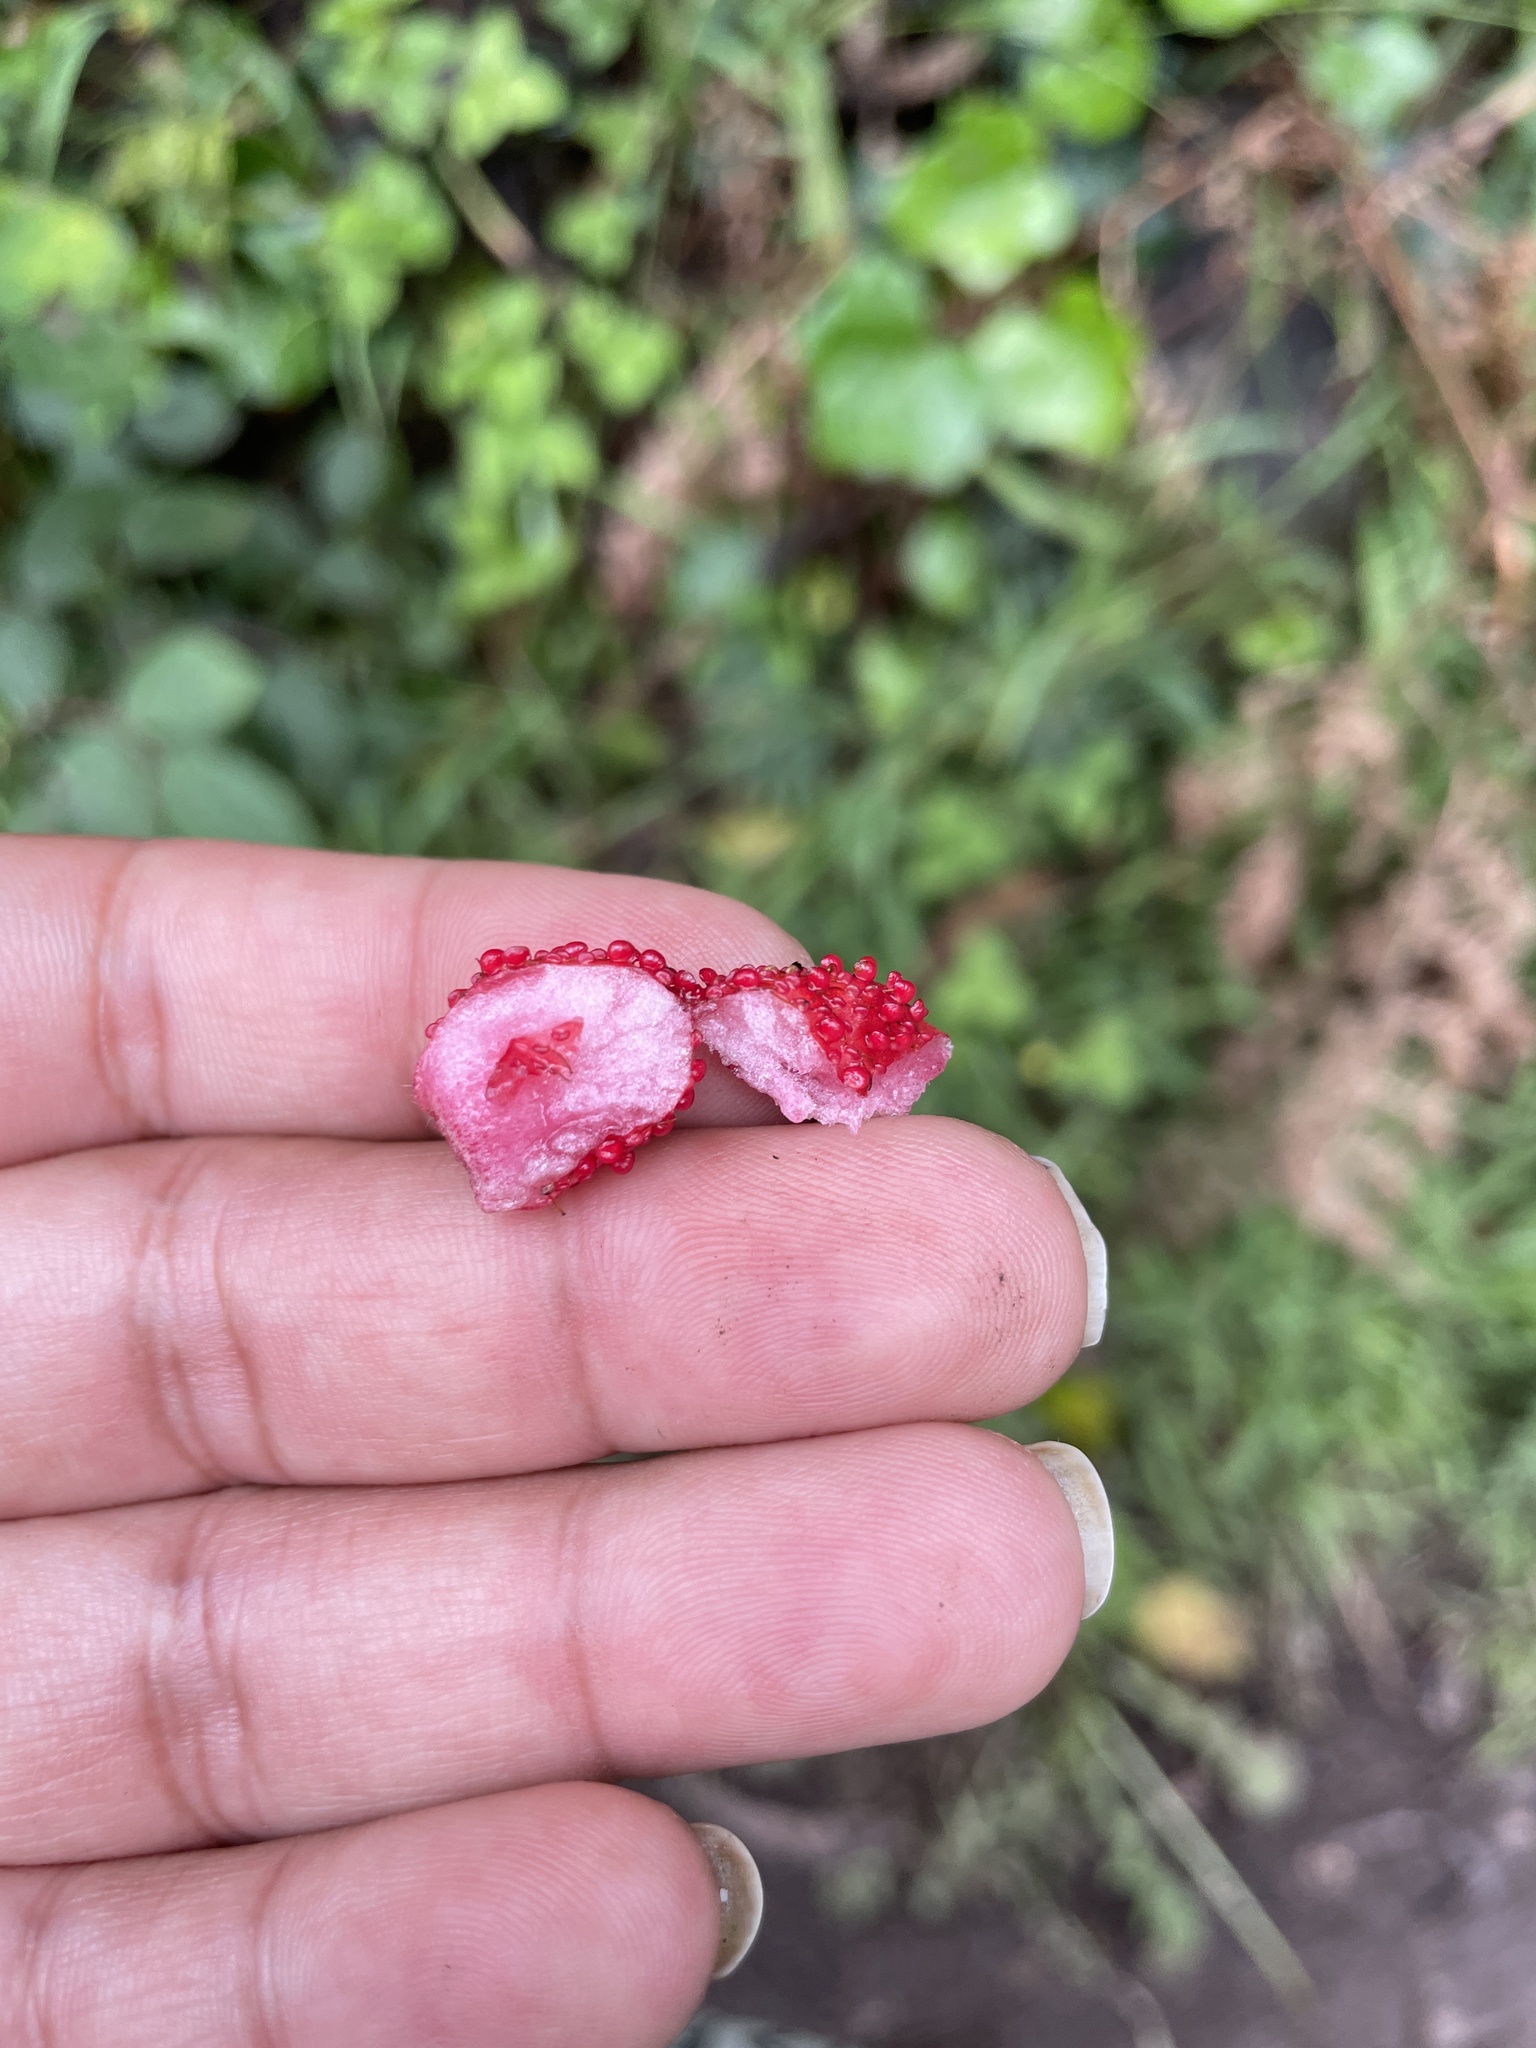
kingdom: Plantae
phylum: Tracheophyta
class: Magnoliopsida
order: Rosales
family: Rosaceae
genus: Potentilla
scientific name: Potentilla indica
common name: Yellow-flowered strawberry
